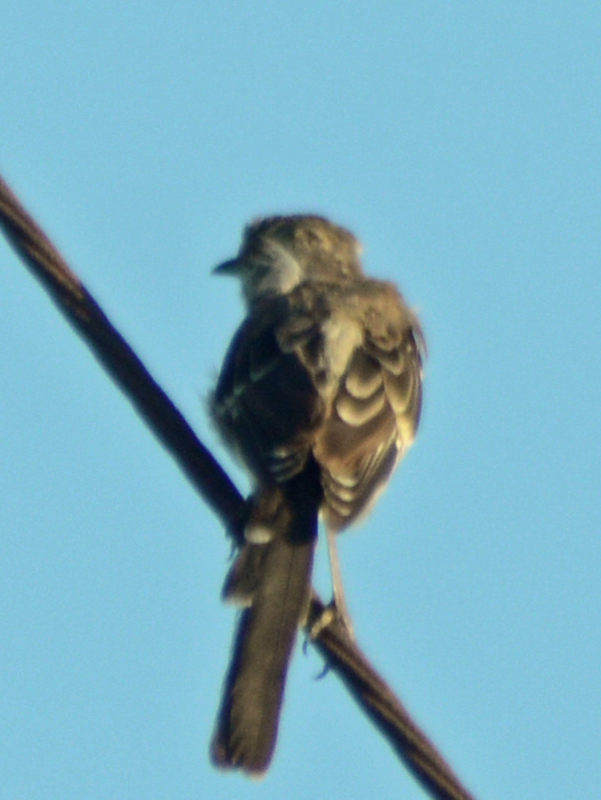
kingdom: Animalia
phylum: Chordata
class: Aves
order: Passeriformes
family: Mimidae
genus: Mimus
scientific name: Mimus polyglottos
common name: Northern mockingbird
